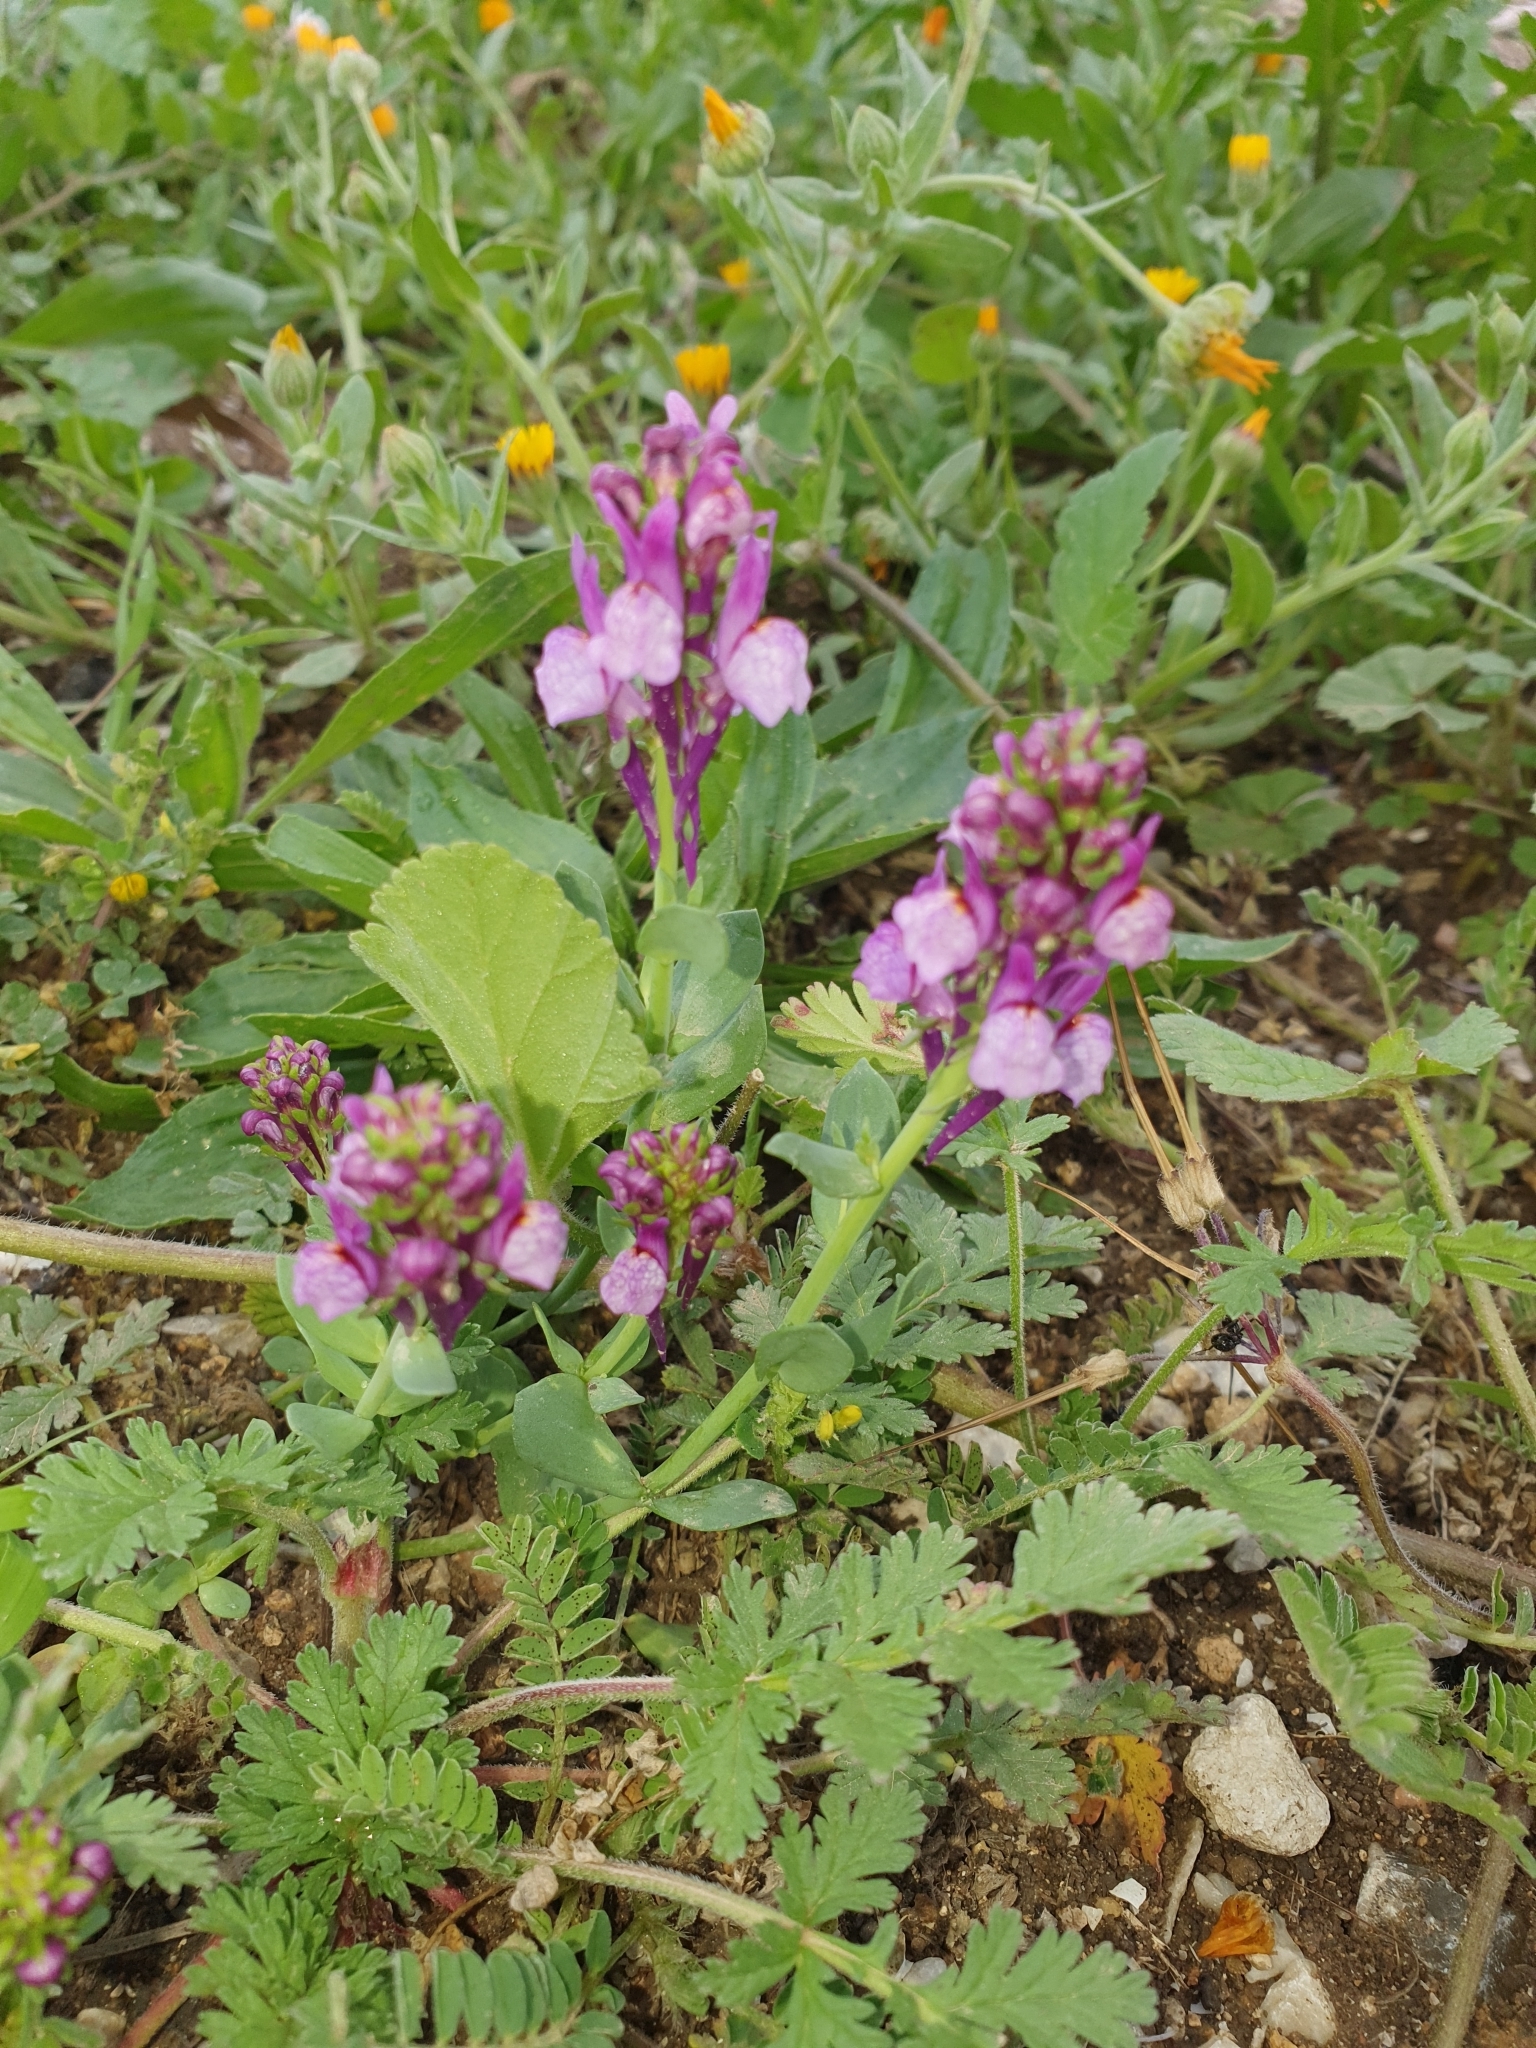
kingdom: Plantae
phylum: Tracheophyta
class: Magnoliopsida
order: Lamiales
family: Plantaginaceae
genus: Linaria
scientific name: Linaria virgata
